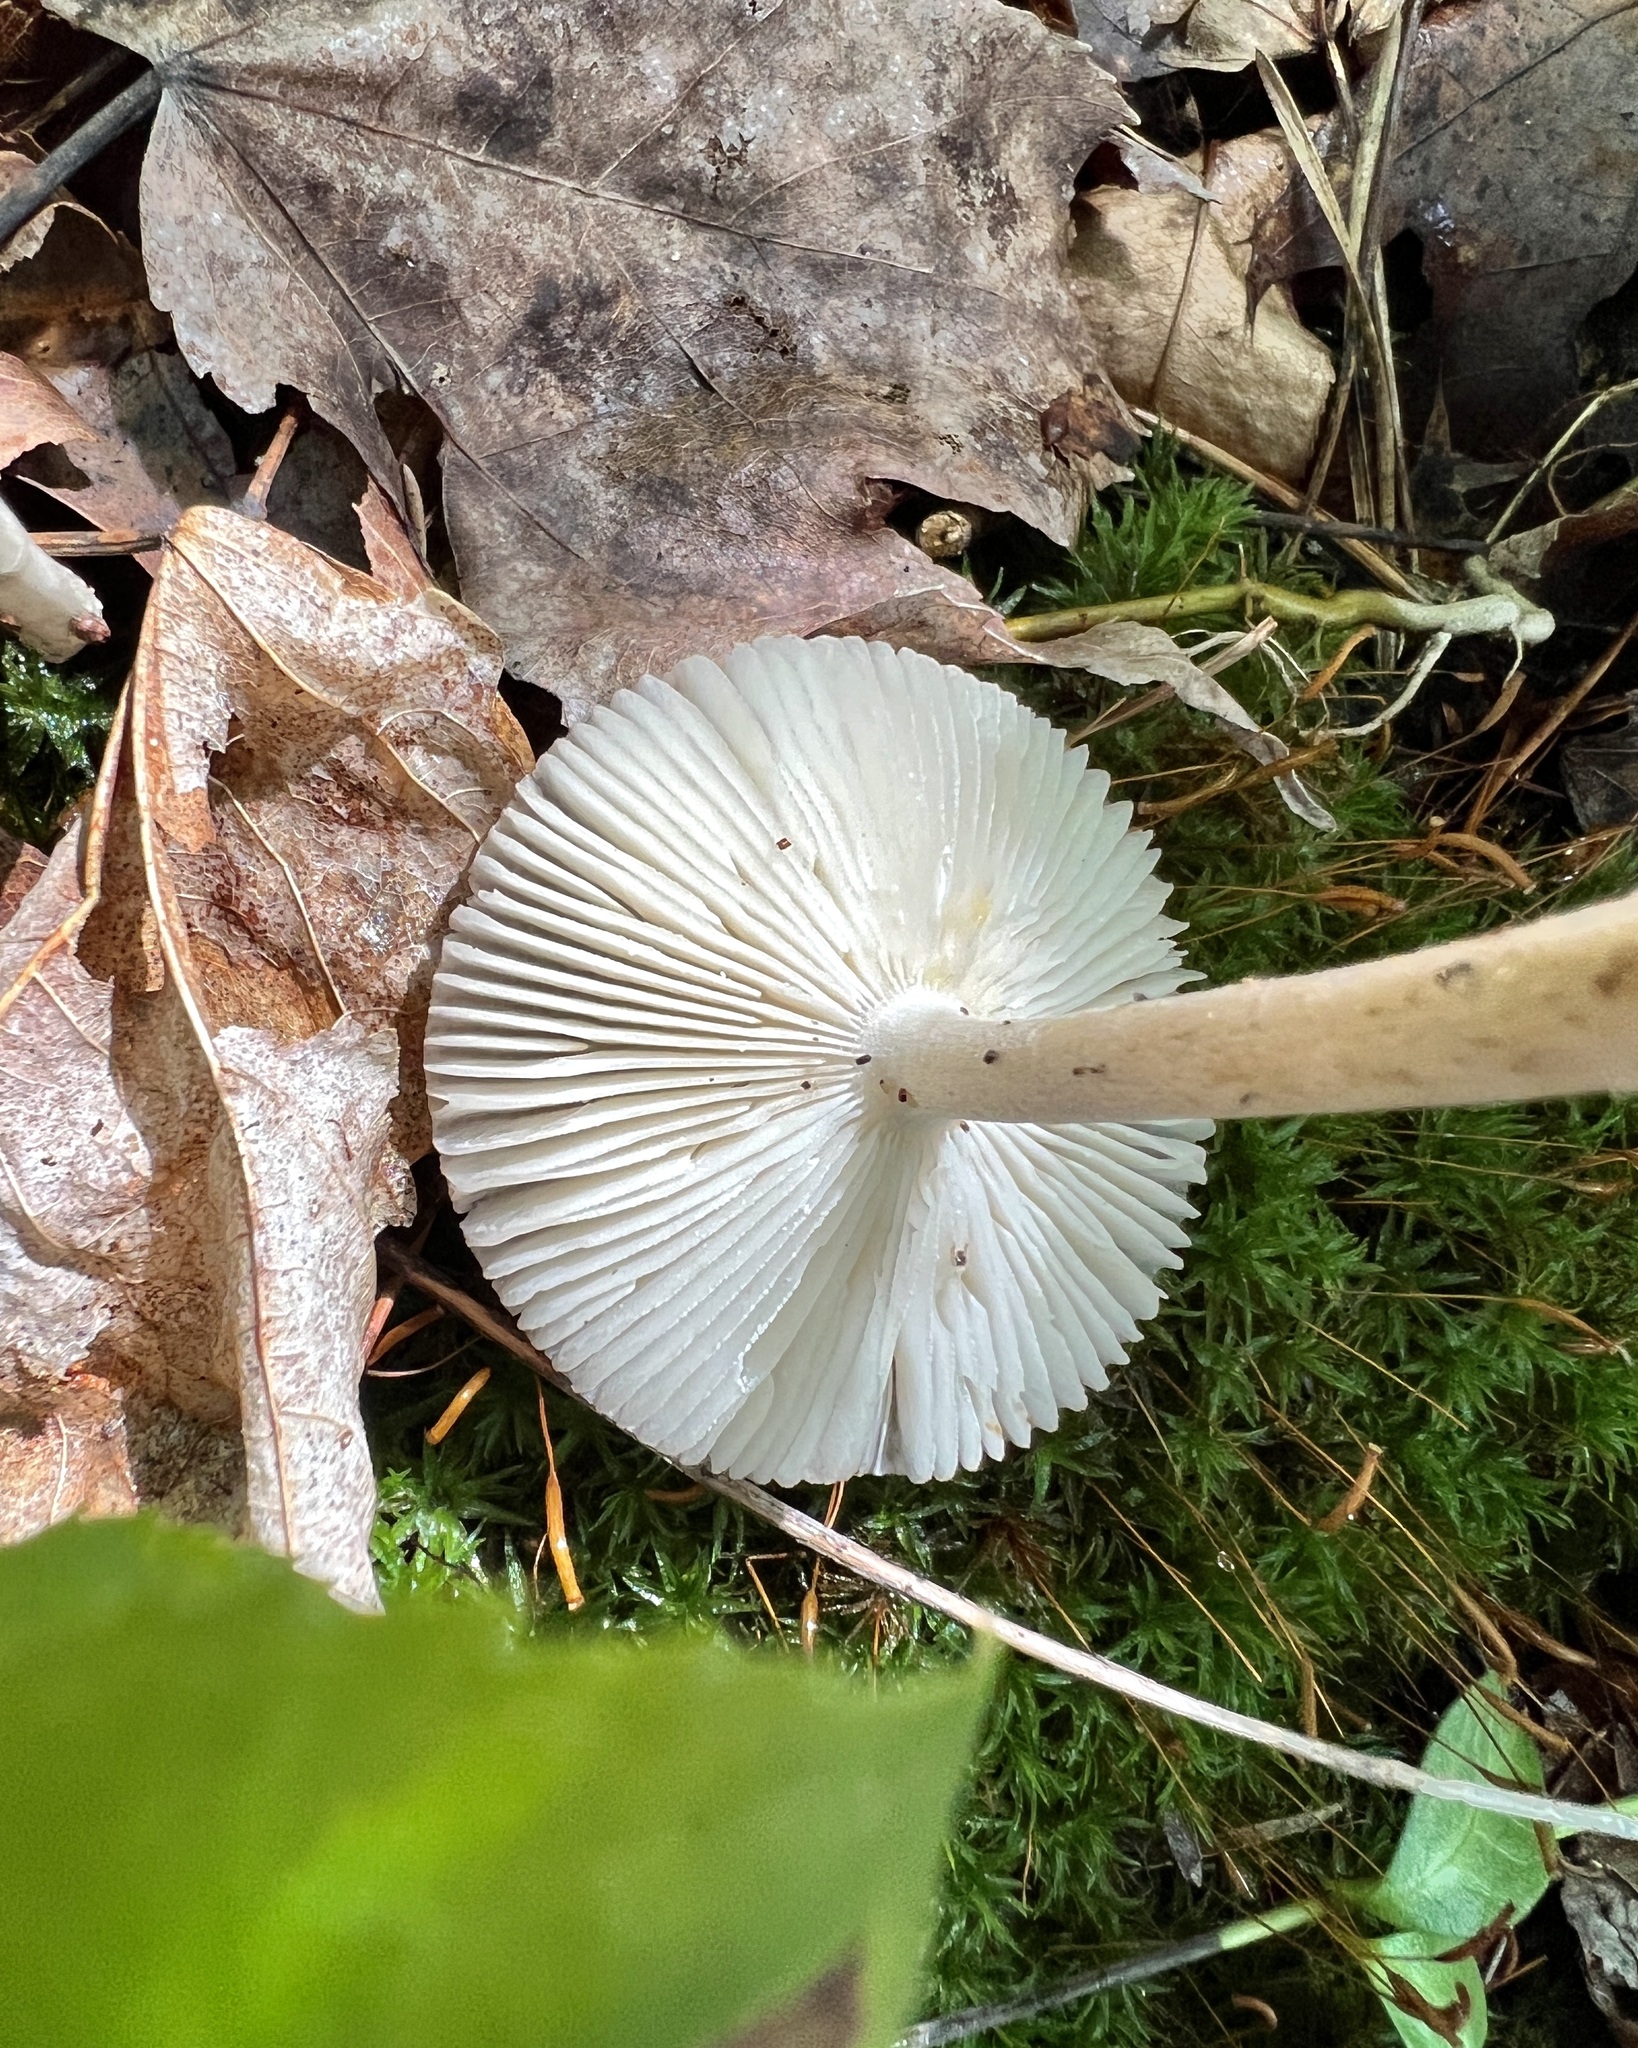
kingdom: Fungi
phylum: Basidiomycota
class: Agaricomycetes
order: Agaricales
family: Amanitaceae
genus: Amanita
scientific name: Amanita vaginata
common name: Grisette
